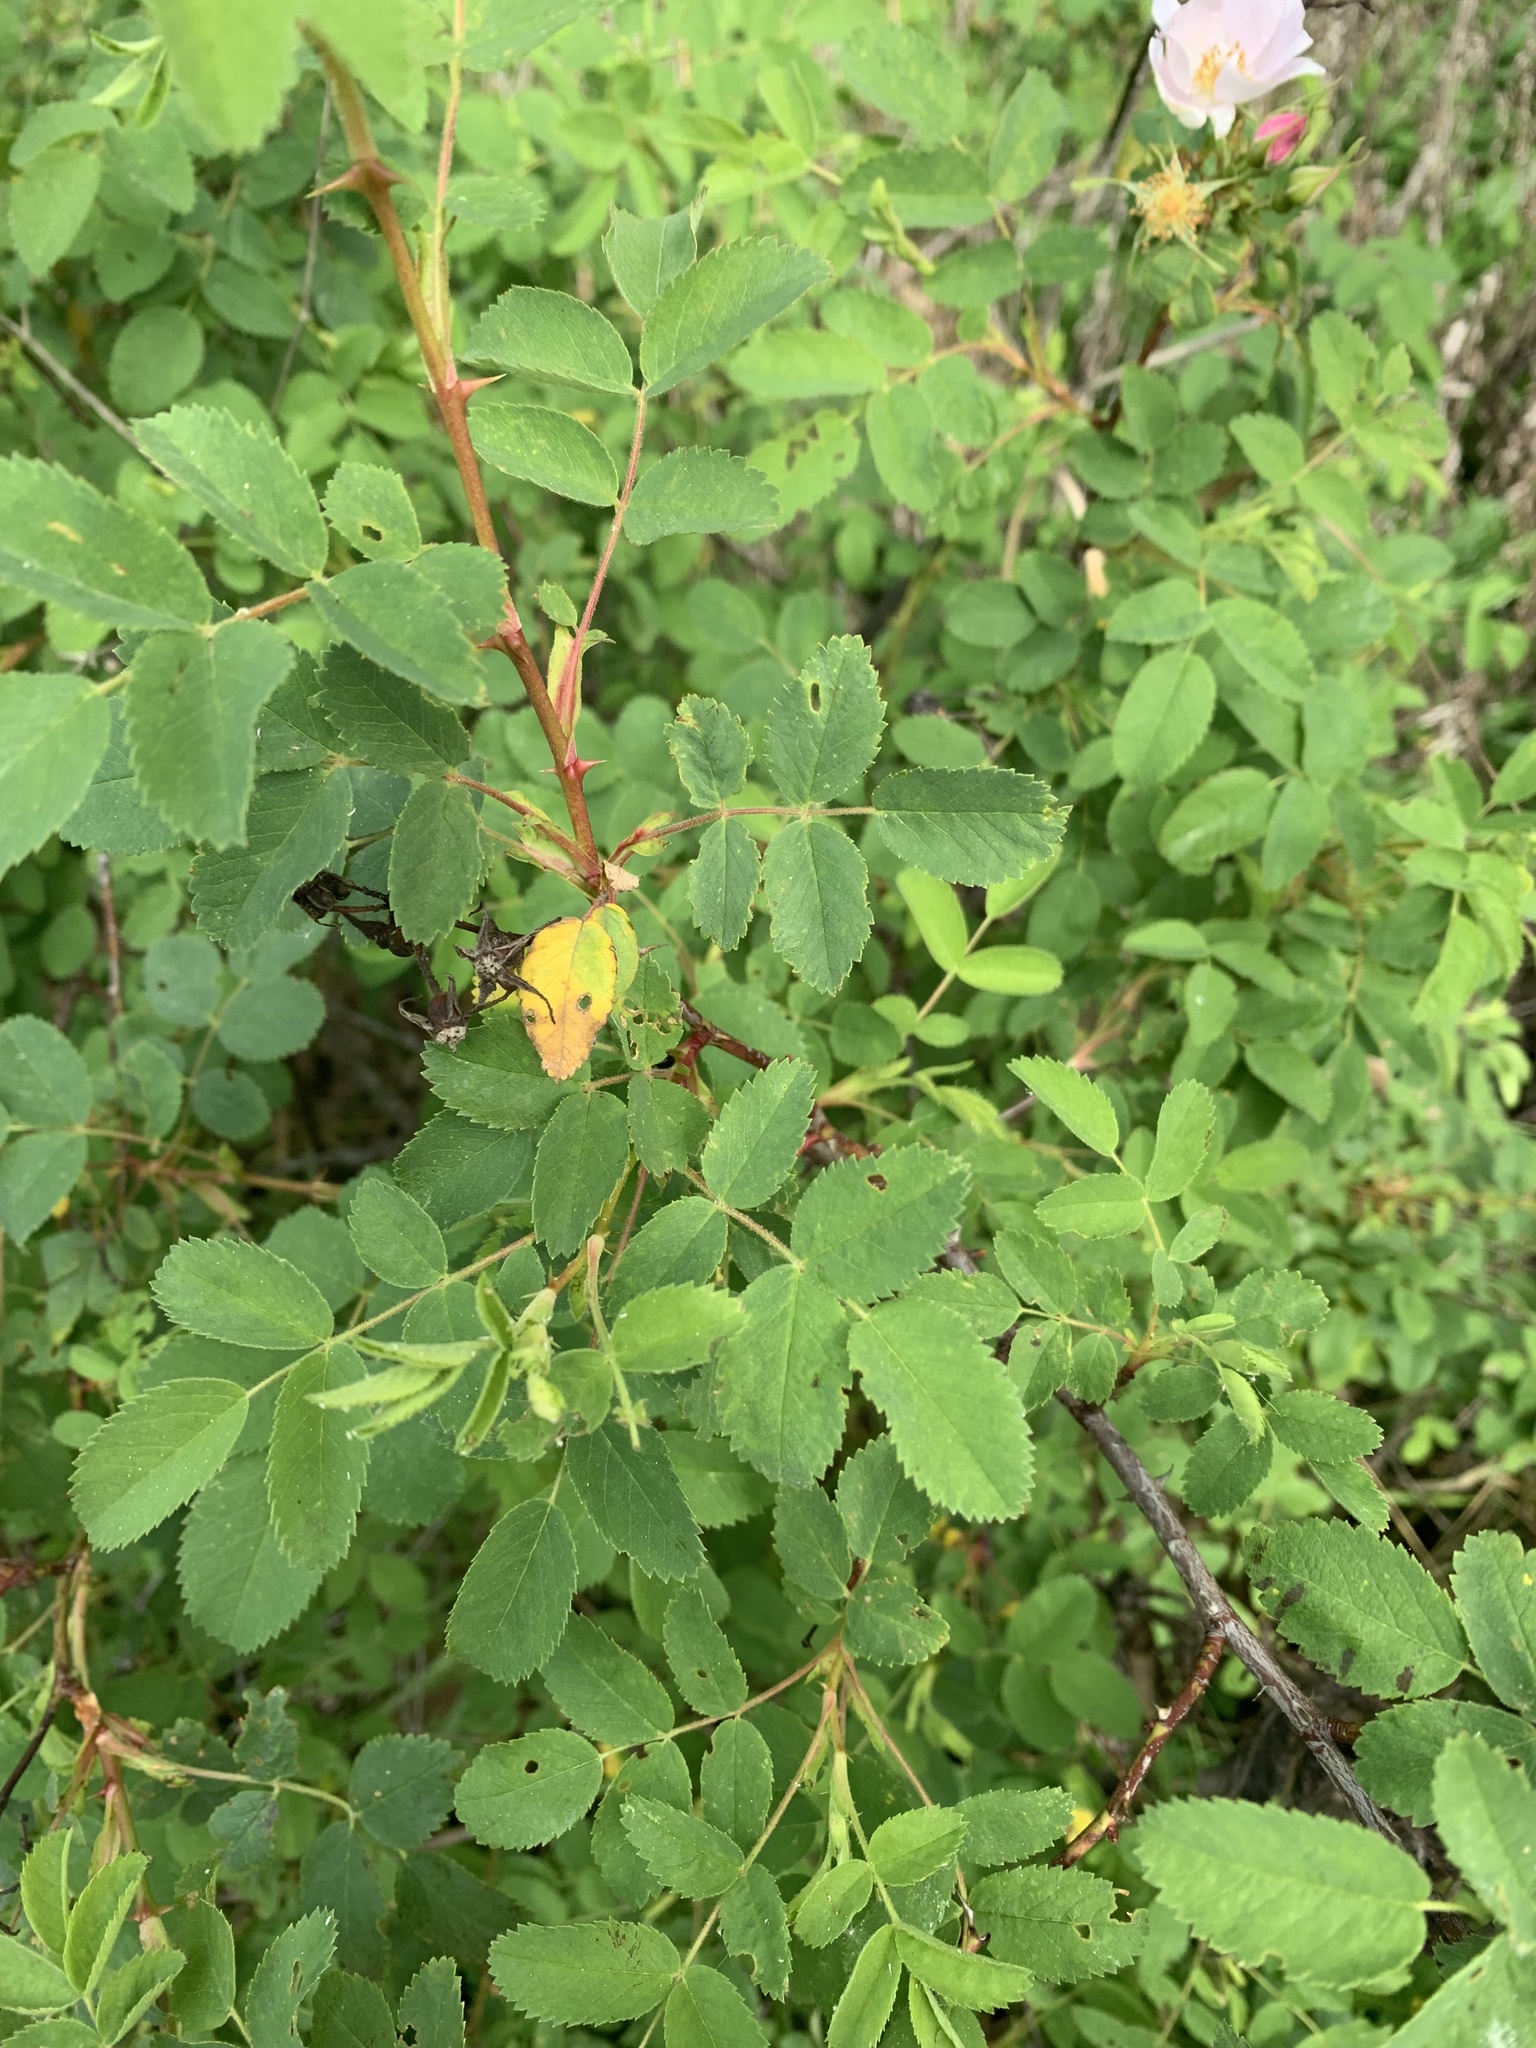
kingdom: Plantae
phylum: Tracheophyta
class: Magnoliopsida
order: Rosales
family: Rosaceae
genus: Rosa
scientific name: Rosa californica
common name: California rose
